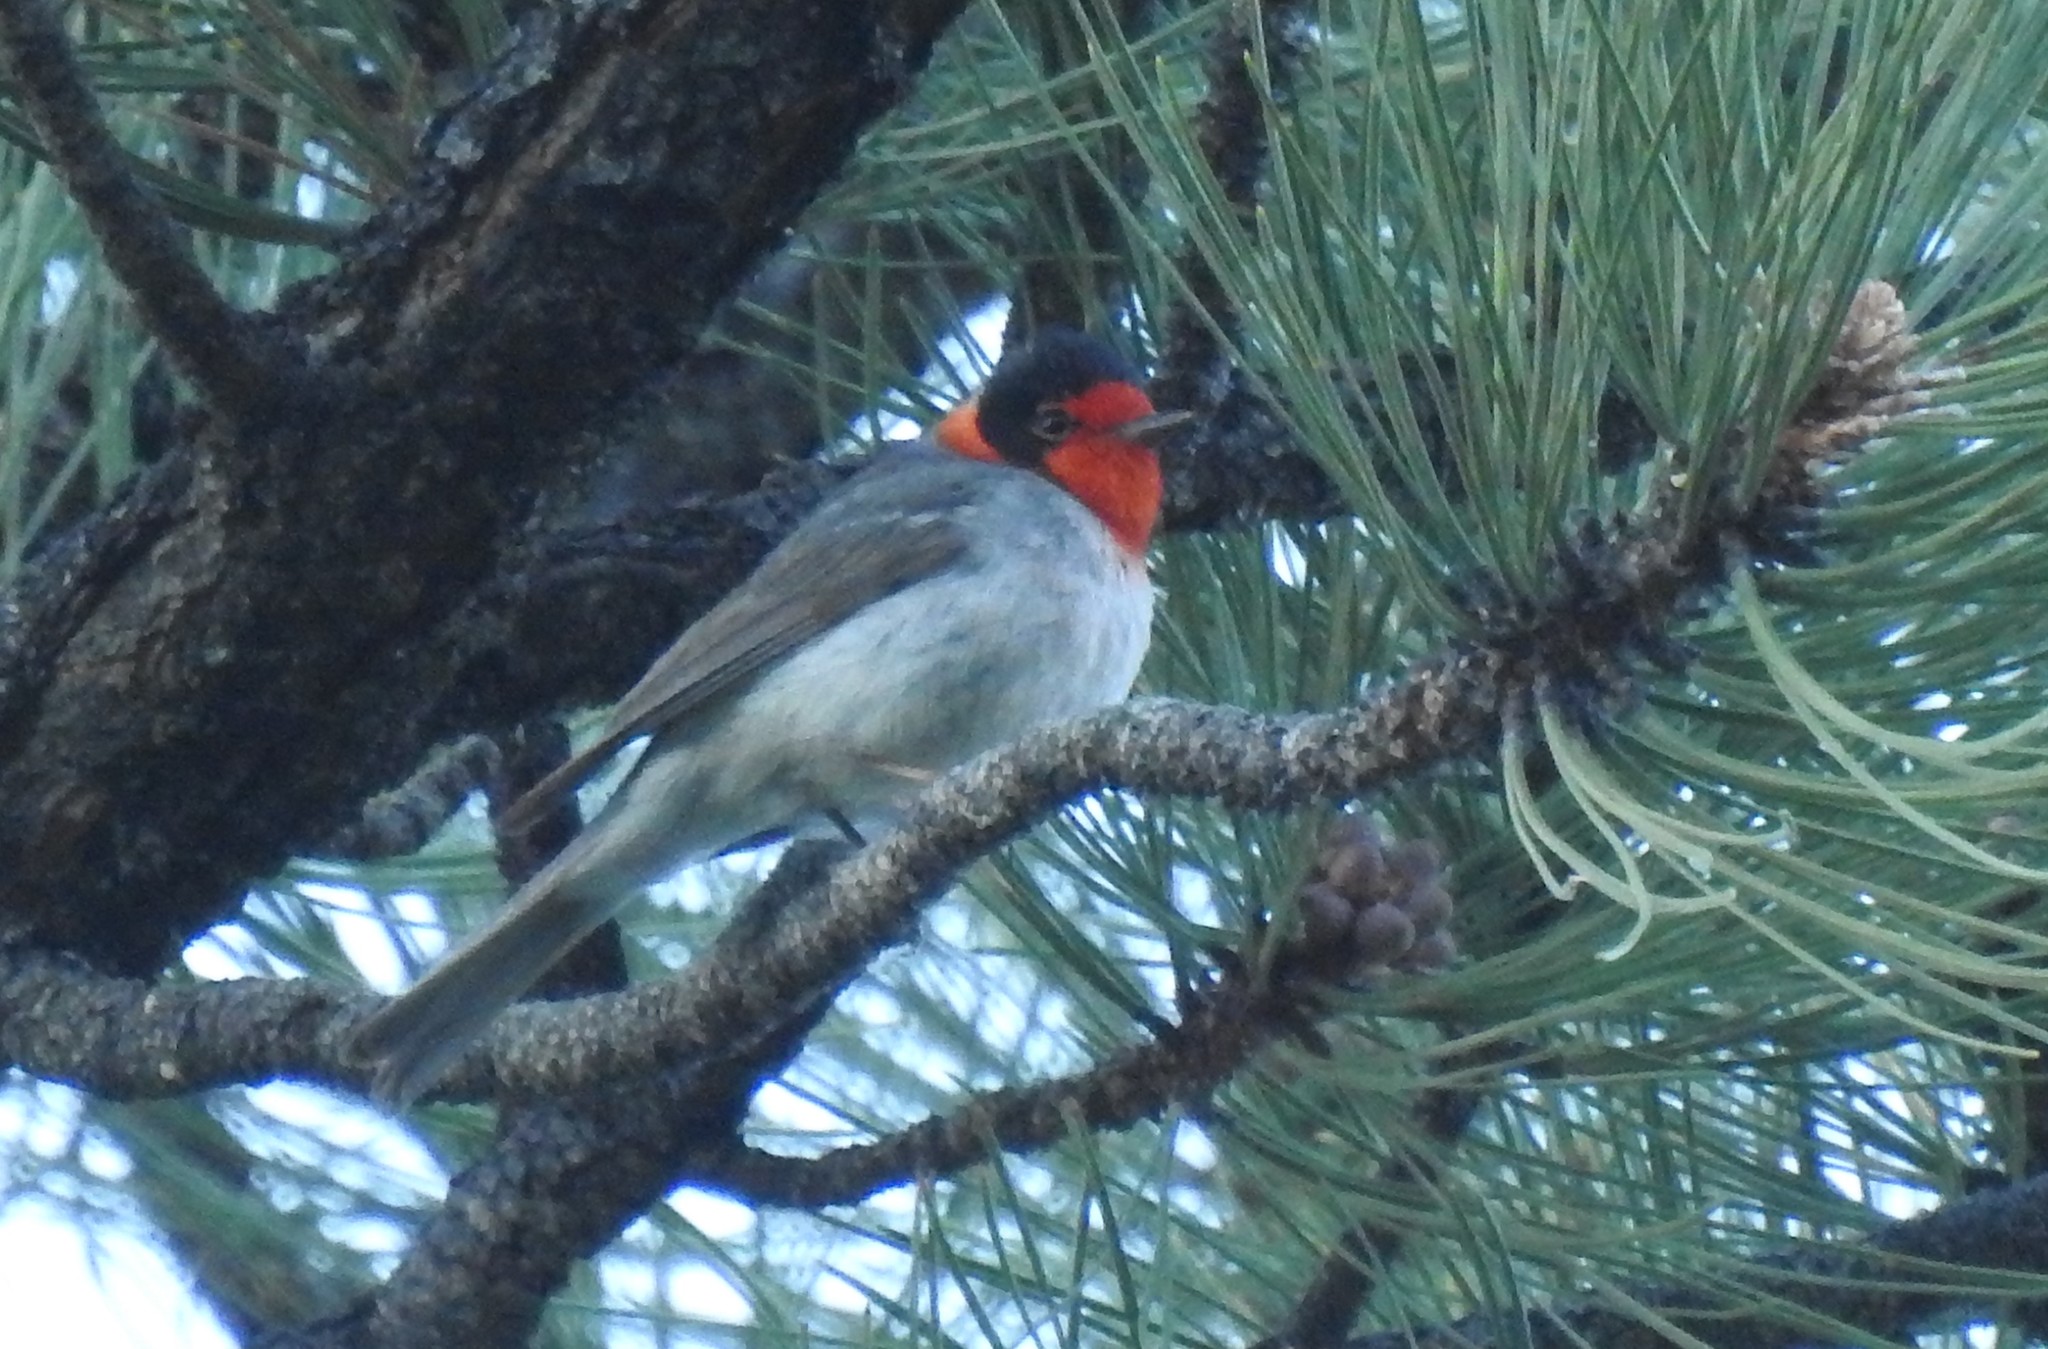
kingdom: Animalia
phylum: Chordata
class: Aves
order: Passeriformes
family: Parulidae
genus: Cardellina
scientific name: Cardellina rubrifrons
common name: Red-faced warbler
